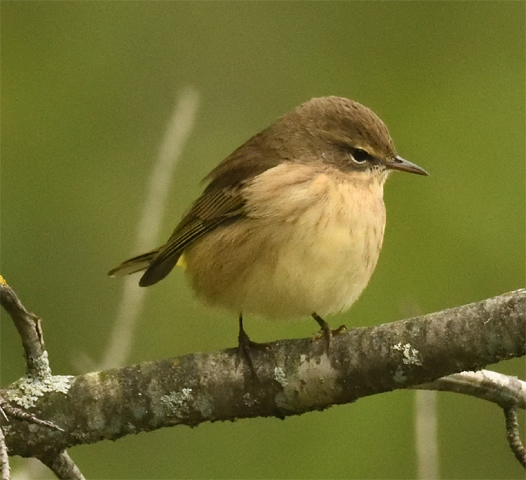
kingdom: Animalia
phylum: Chordata
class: Aves
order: Passeriformes
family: Parulidae
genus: Setophaga
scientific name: Setophaga palmarum
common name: Palm warbler
